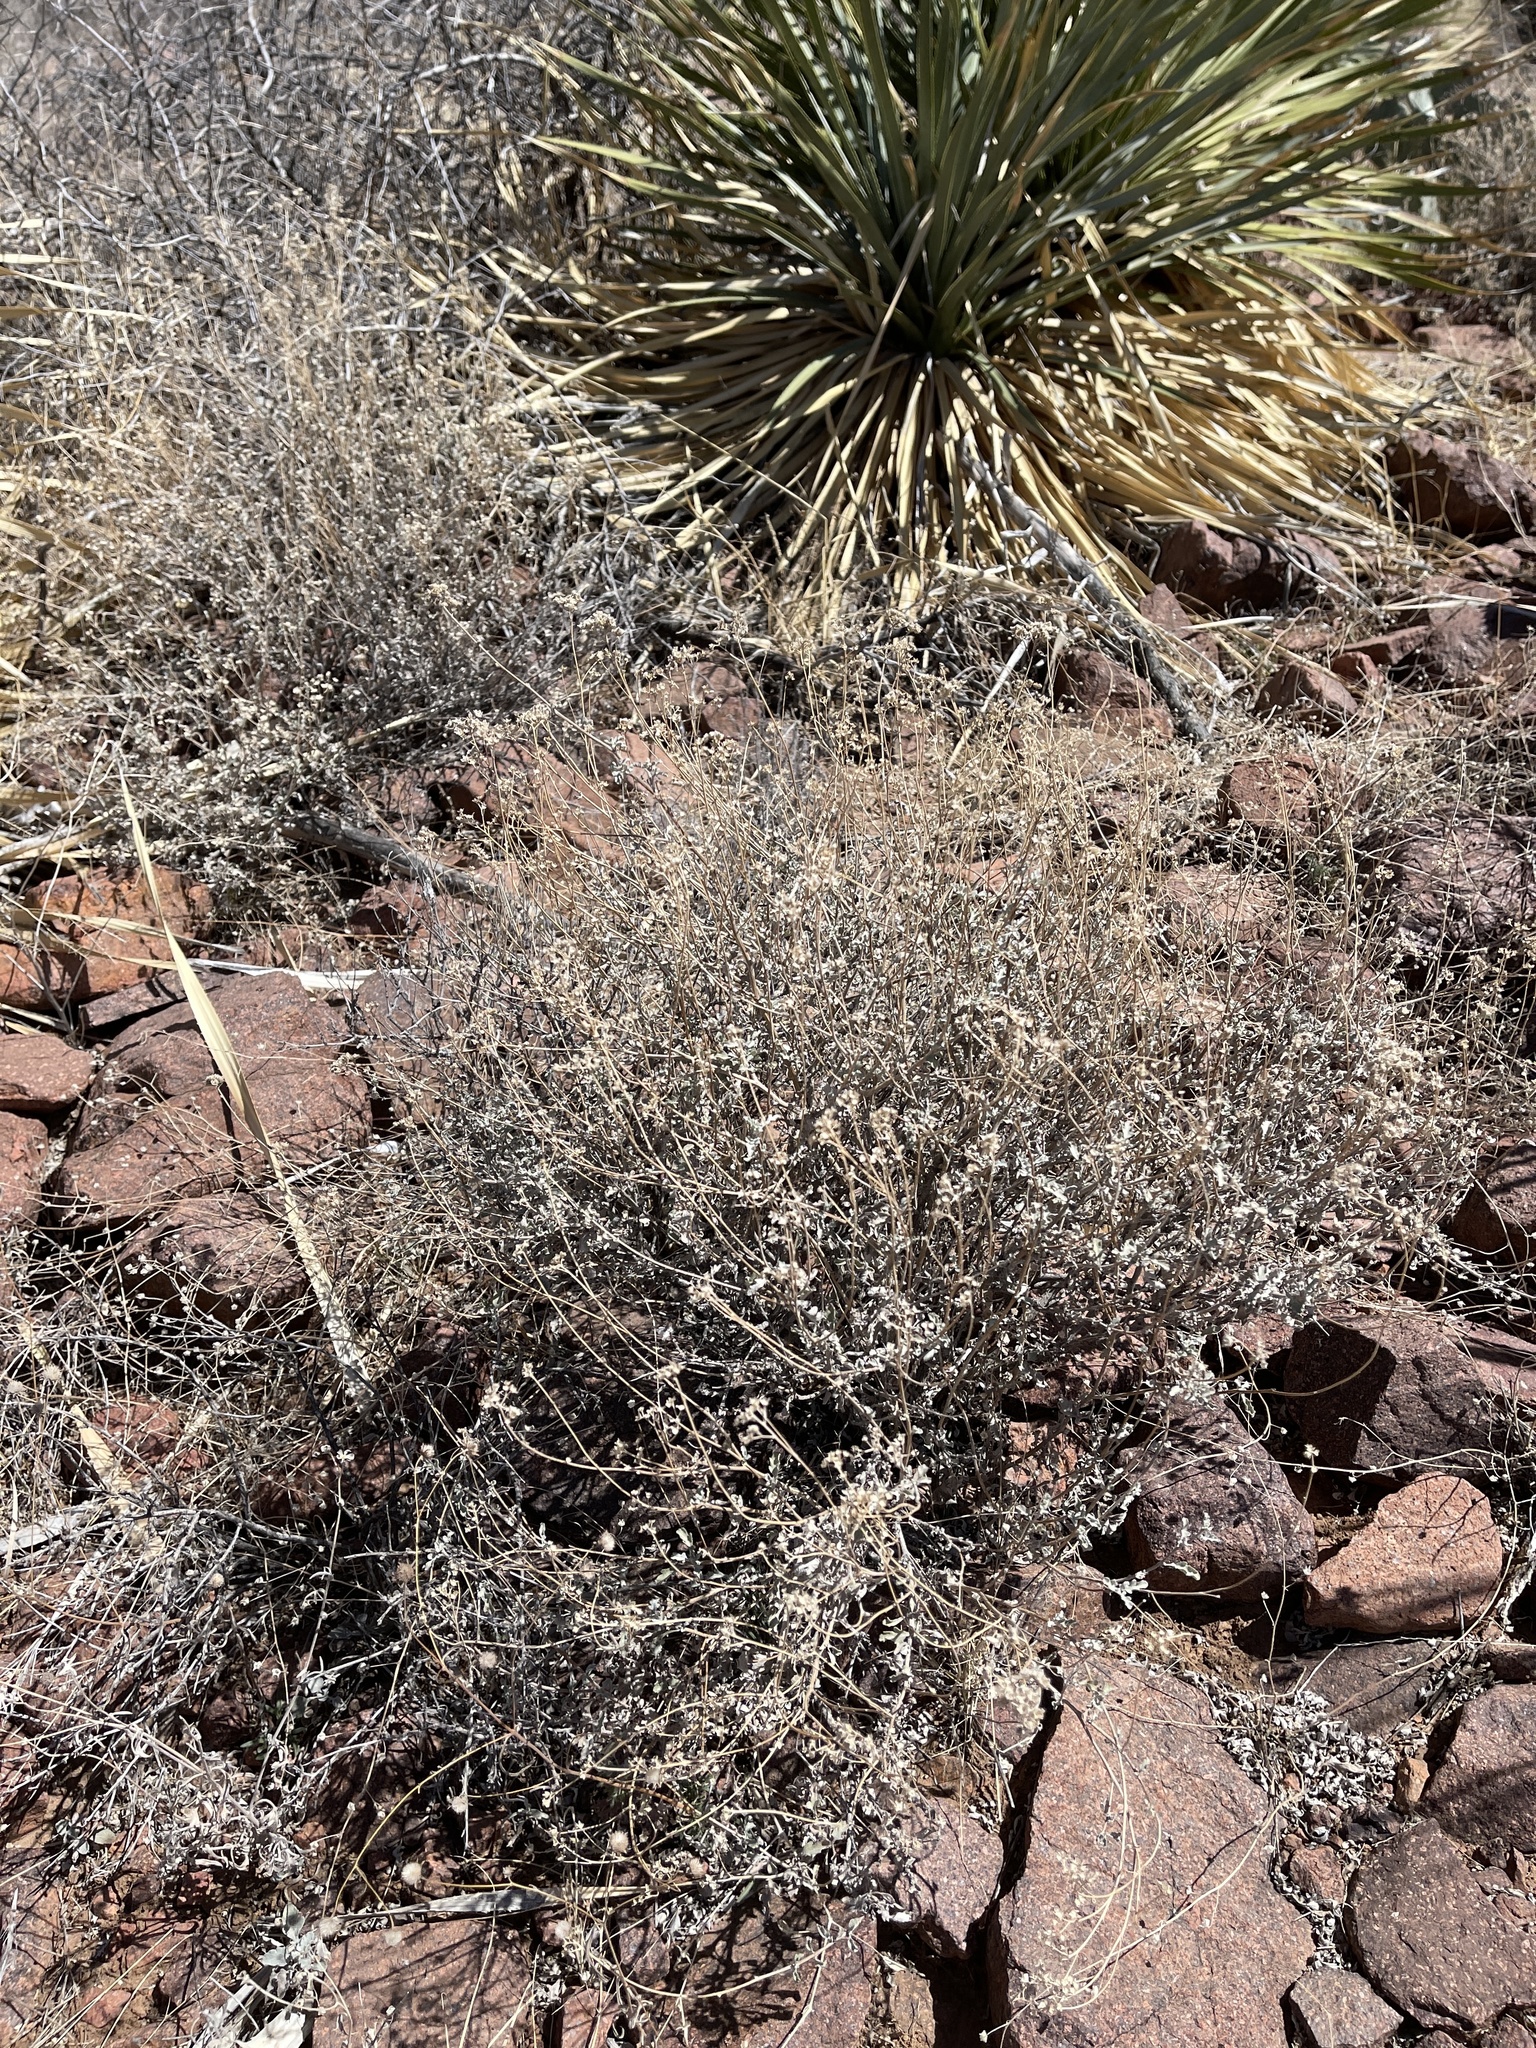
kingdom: Plantae
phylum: Tracheophyta
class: Magnoliopsida
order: Asterales
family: Asteraceae
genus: Parthenium
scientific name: Parthenium incanum
